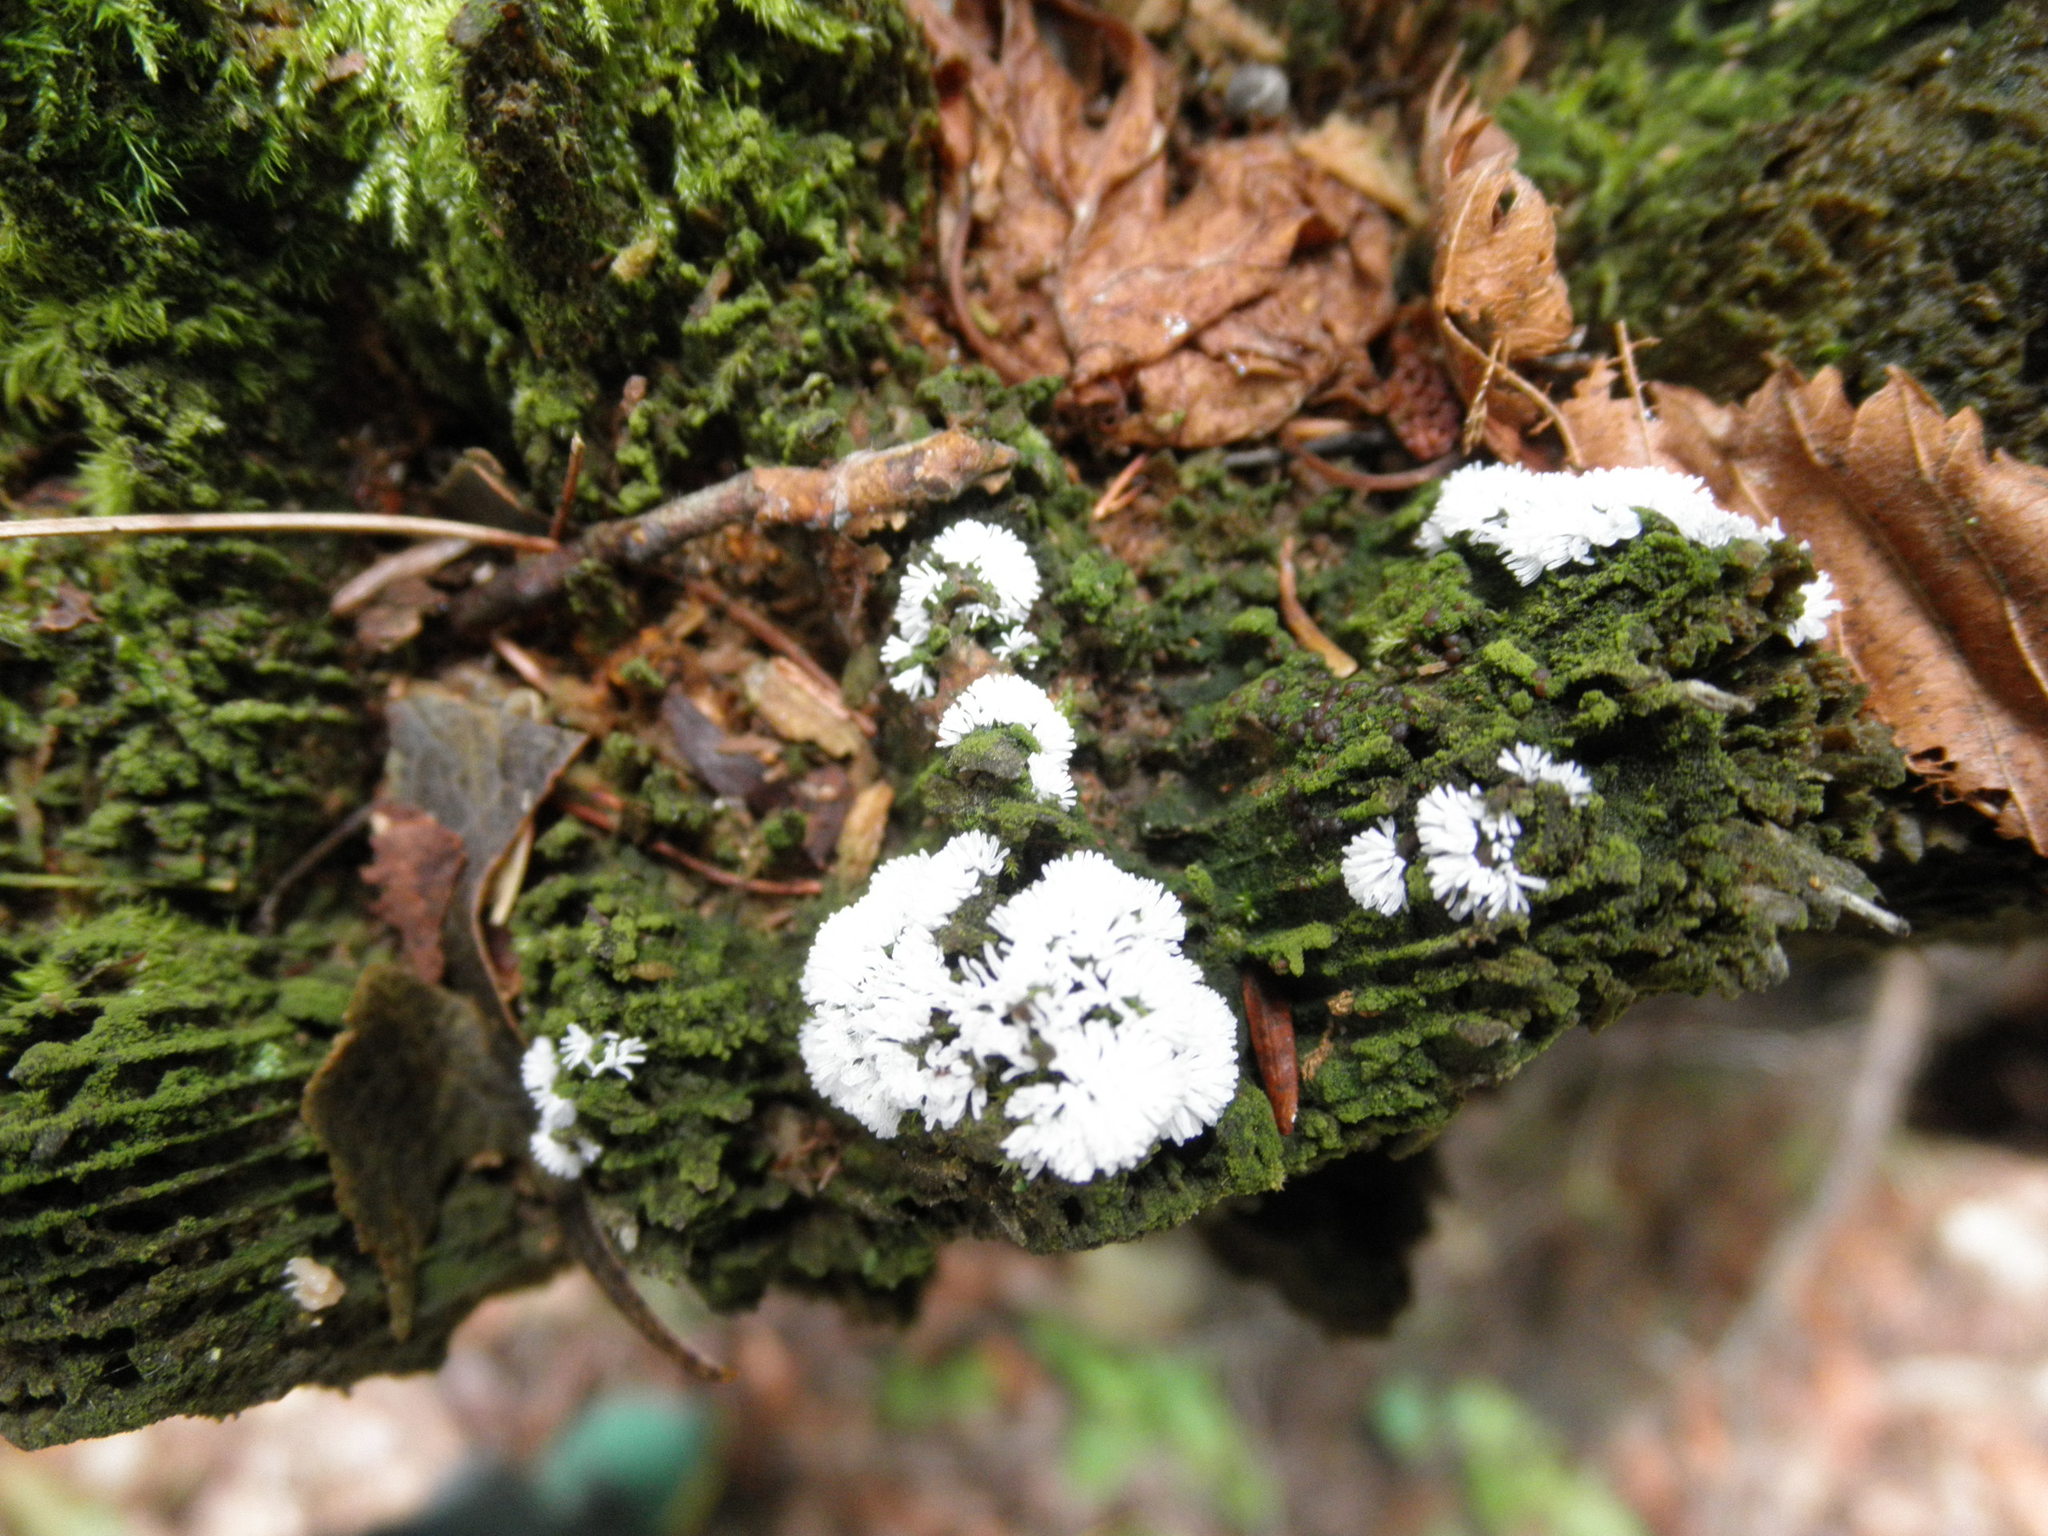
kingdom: Protozoa
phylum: Mycetozoa
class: Protosteliomycetes
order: Ceratiomyxales
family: Ceratiomyxaceae
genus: Ceratiomyxa
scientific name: Ceratiomyxa fruticulosa
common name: Honeycomb coral slime mold
